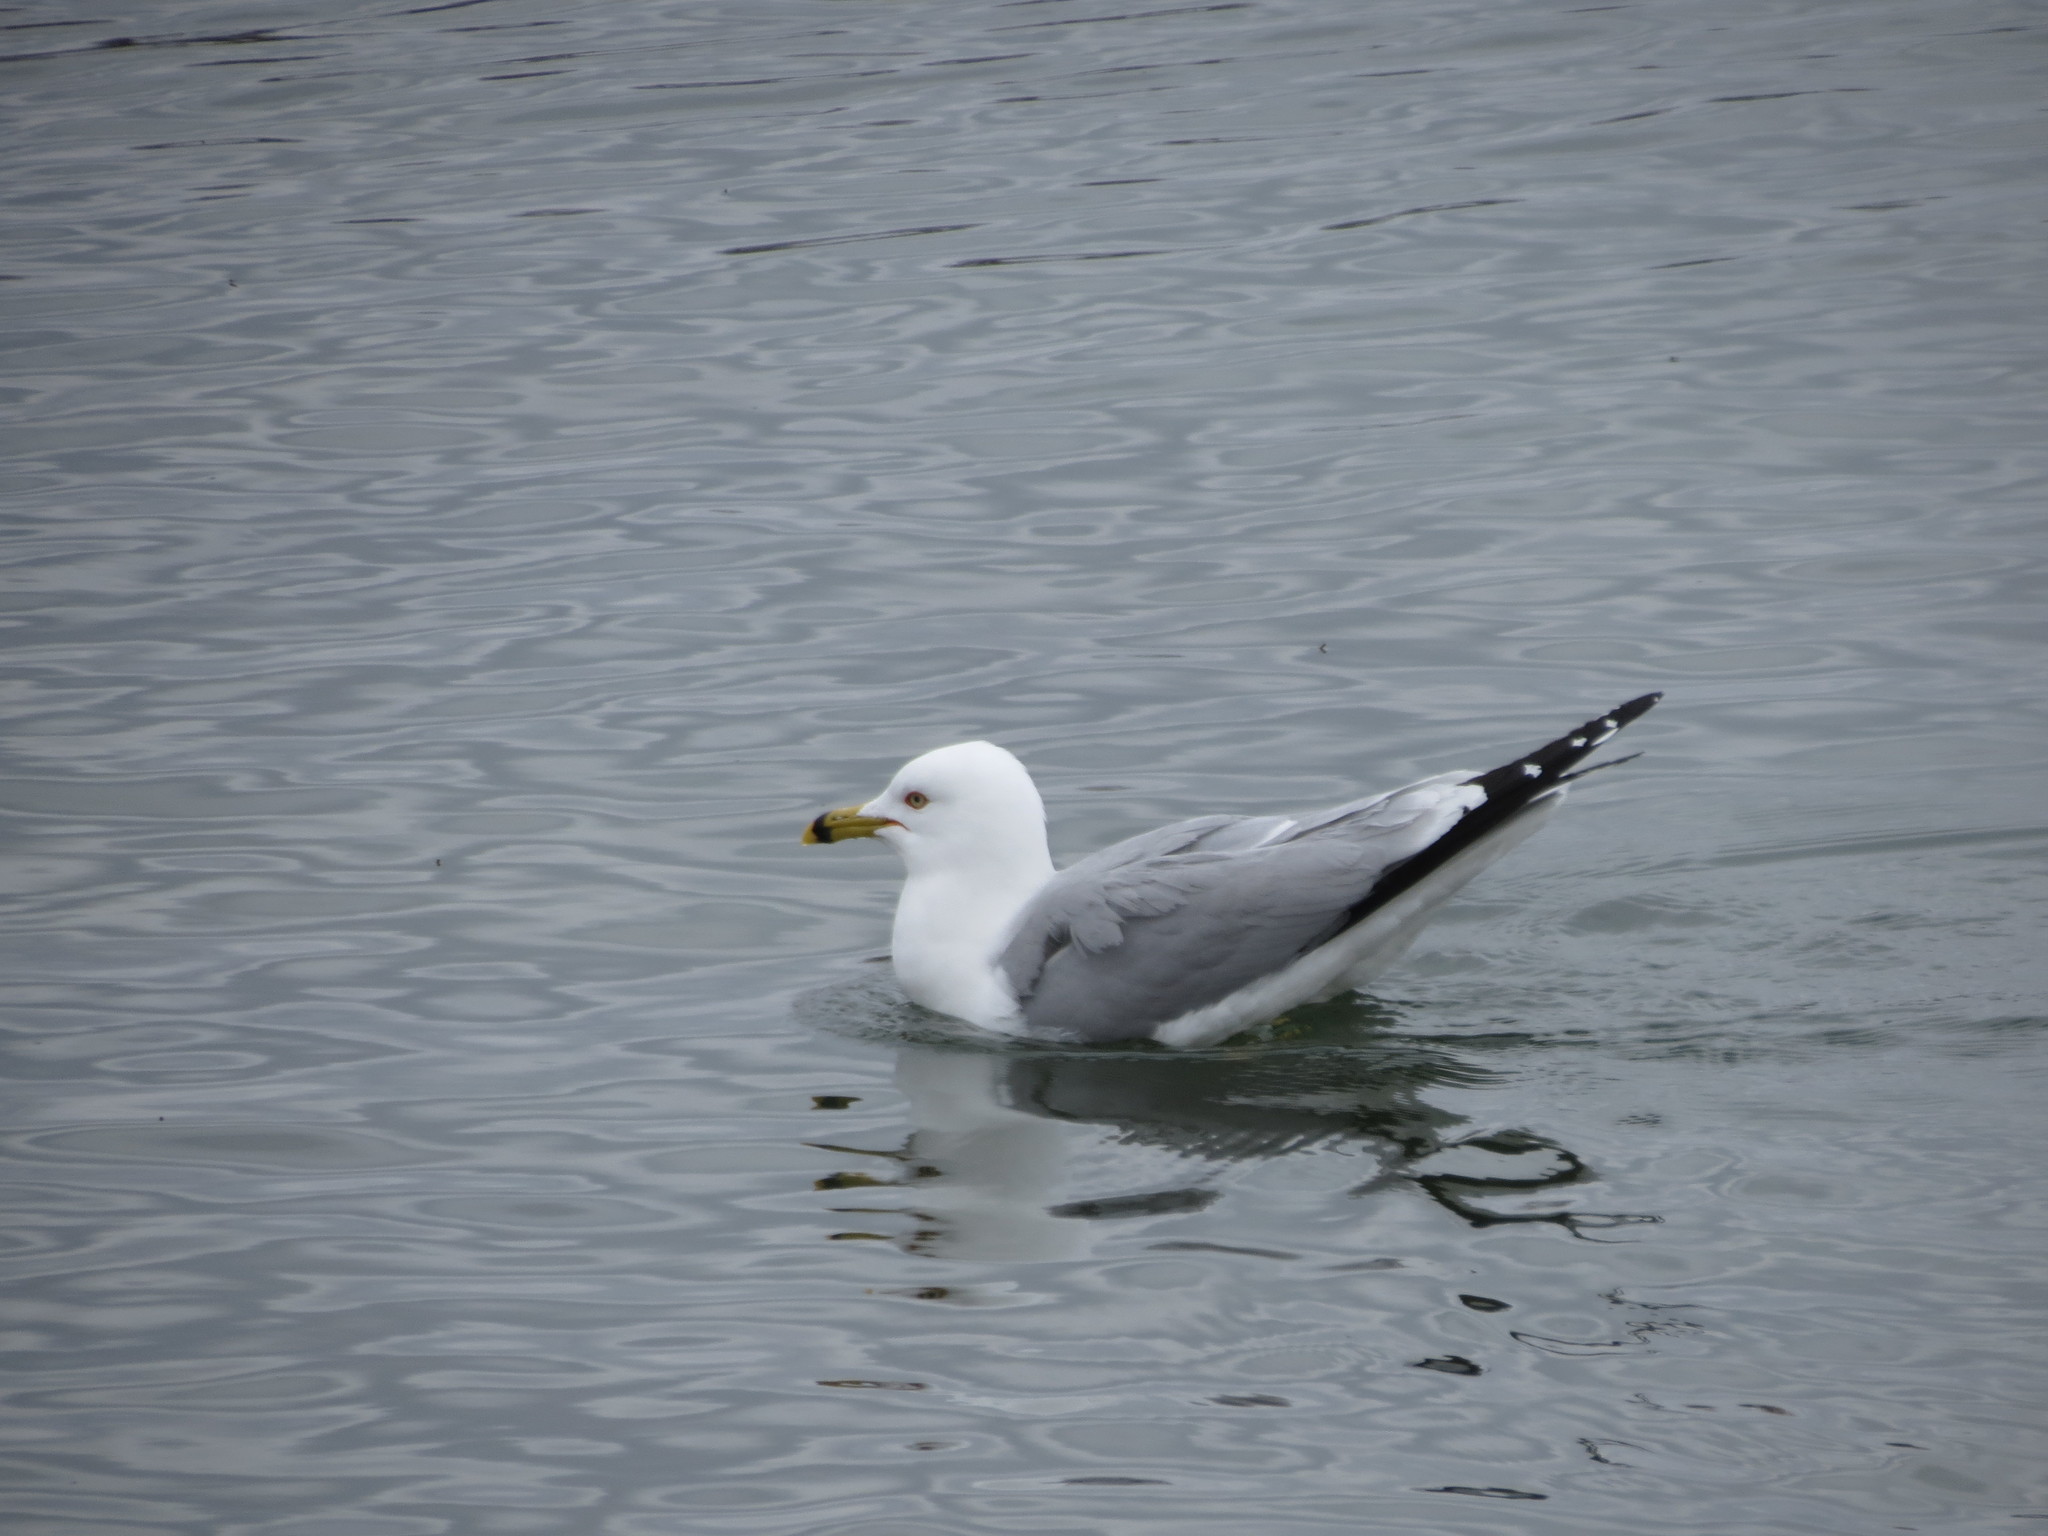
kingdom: Animalia
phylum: Chordata
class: Aves
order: Charadriiformes
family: Laridae
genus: Larus
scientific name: Larus delawarensis
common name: Ring-billed gull
